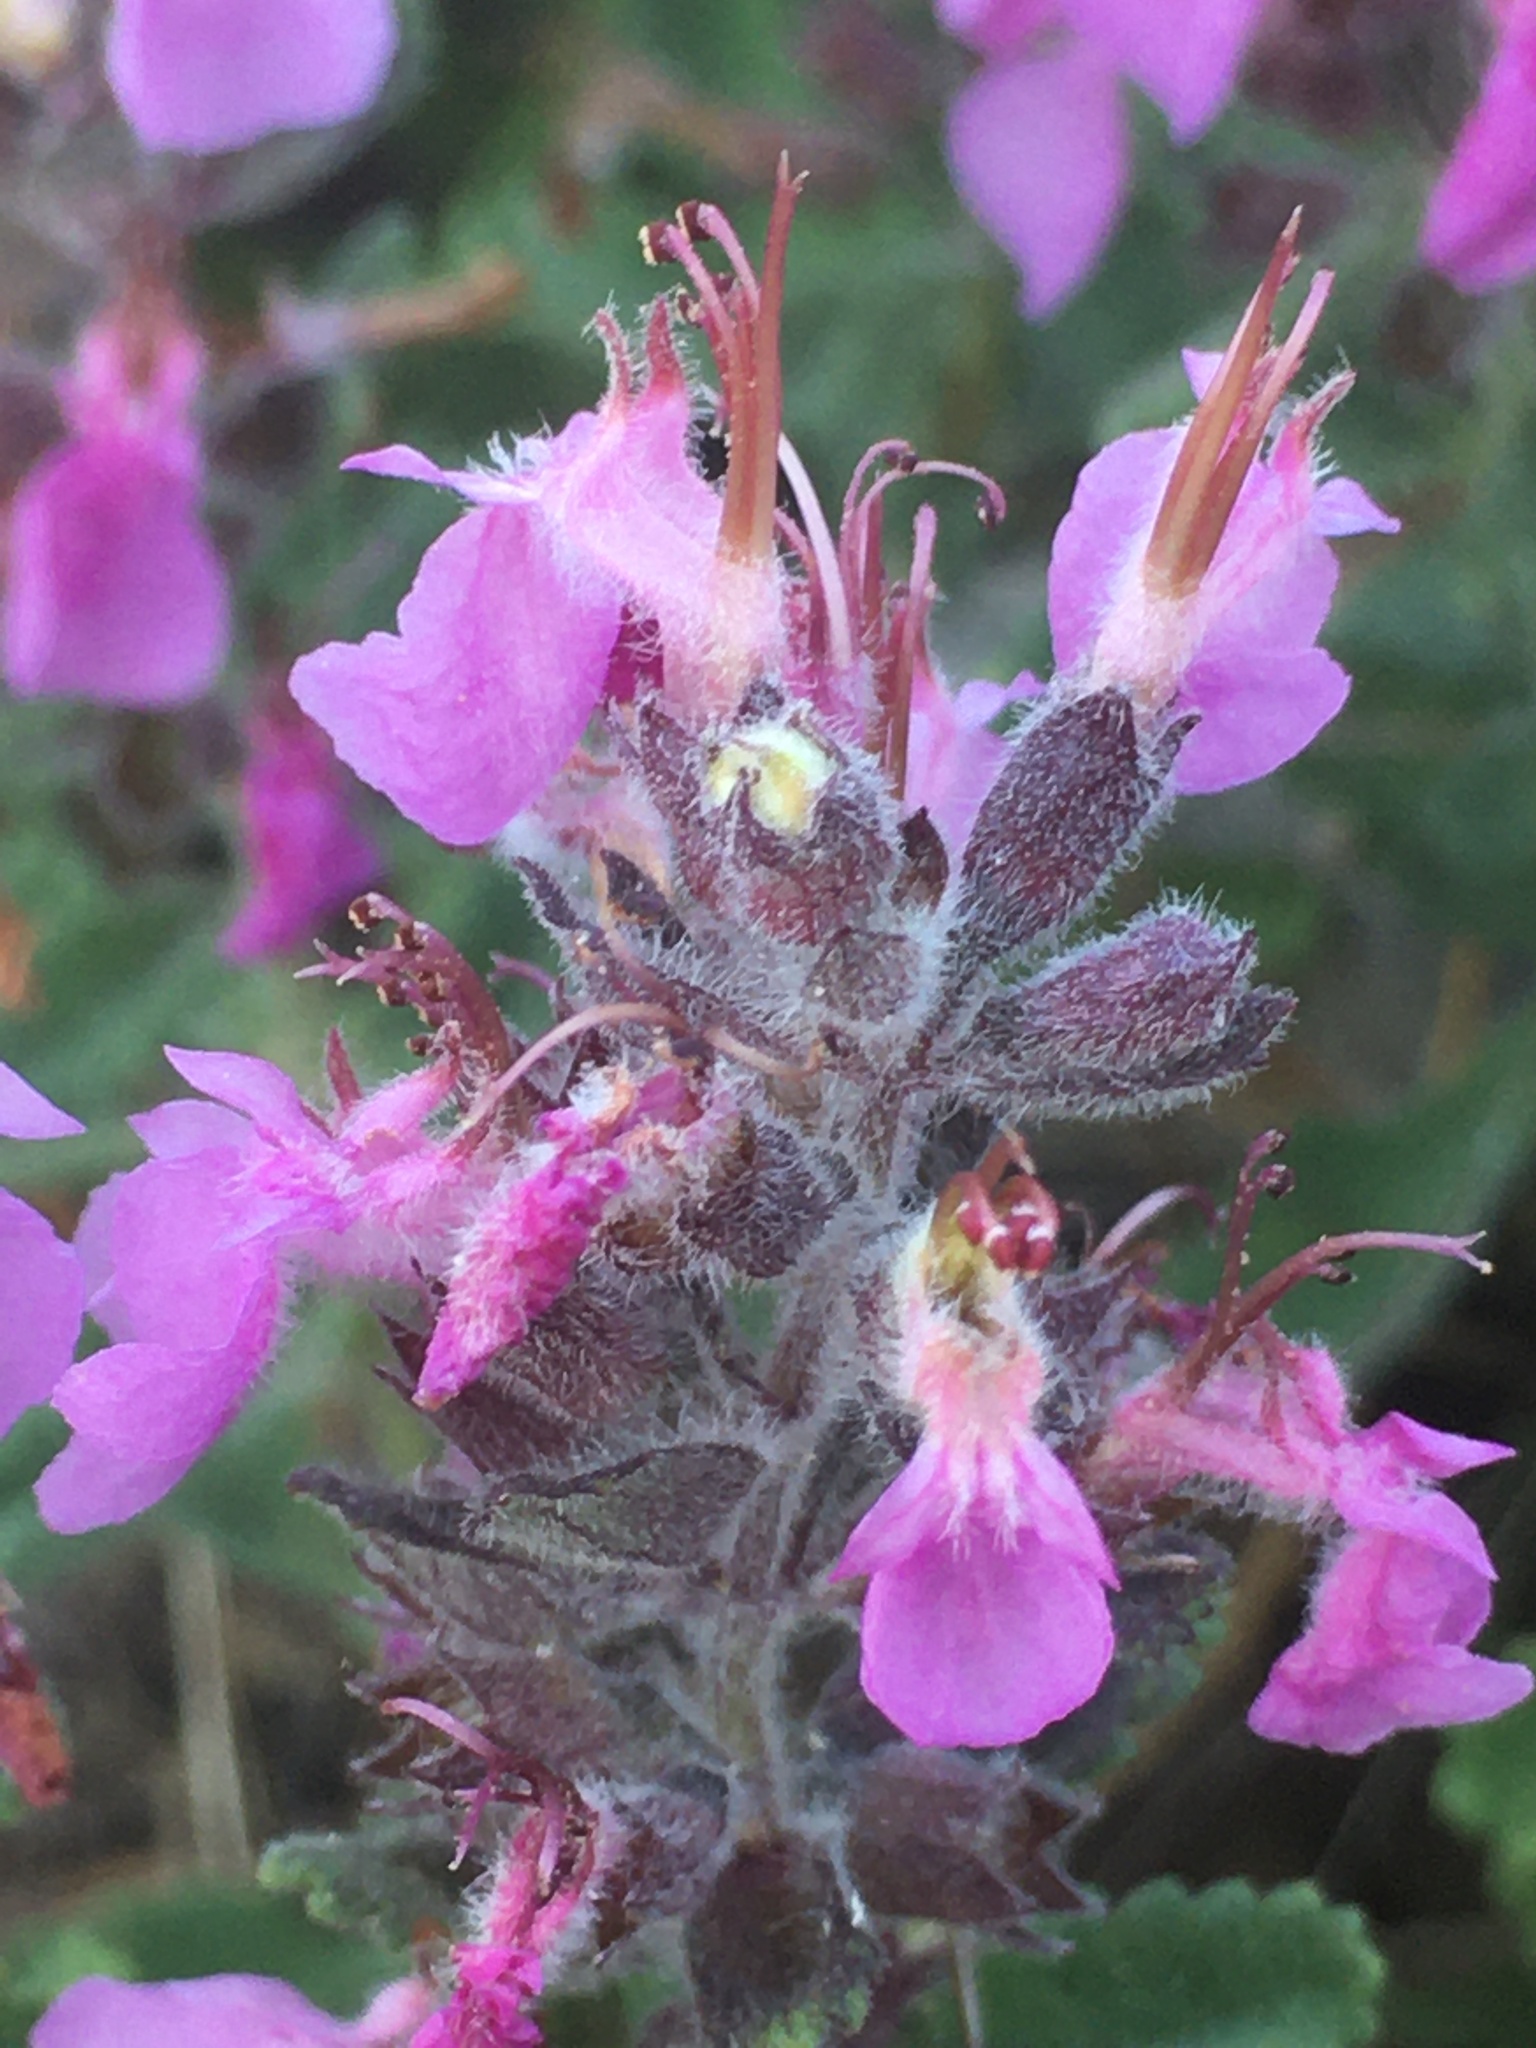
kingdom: Plantae
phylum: Tracheophyta
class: Magnoliopsida
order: Lamiales
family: Lamiaceae
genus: Teucrium
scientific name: Teucrium chamaedrys
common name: Wall germander
